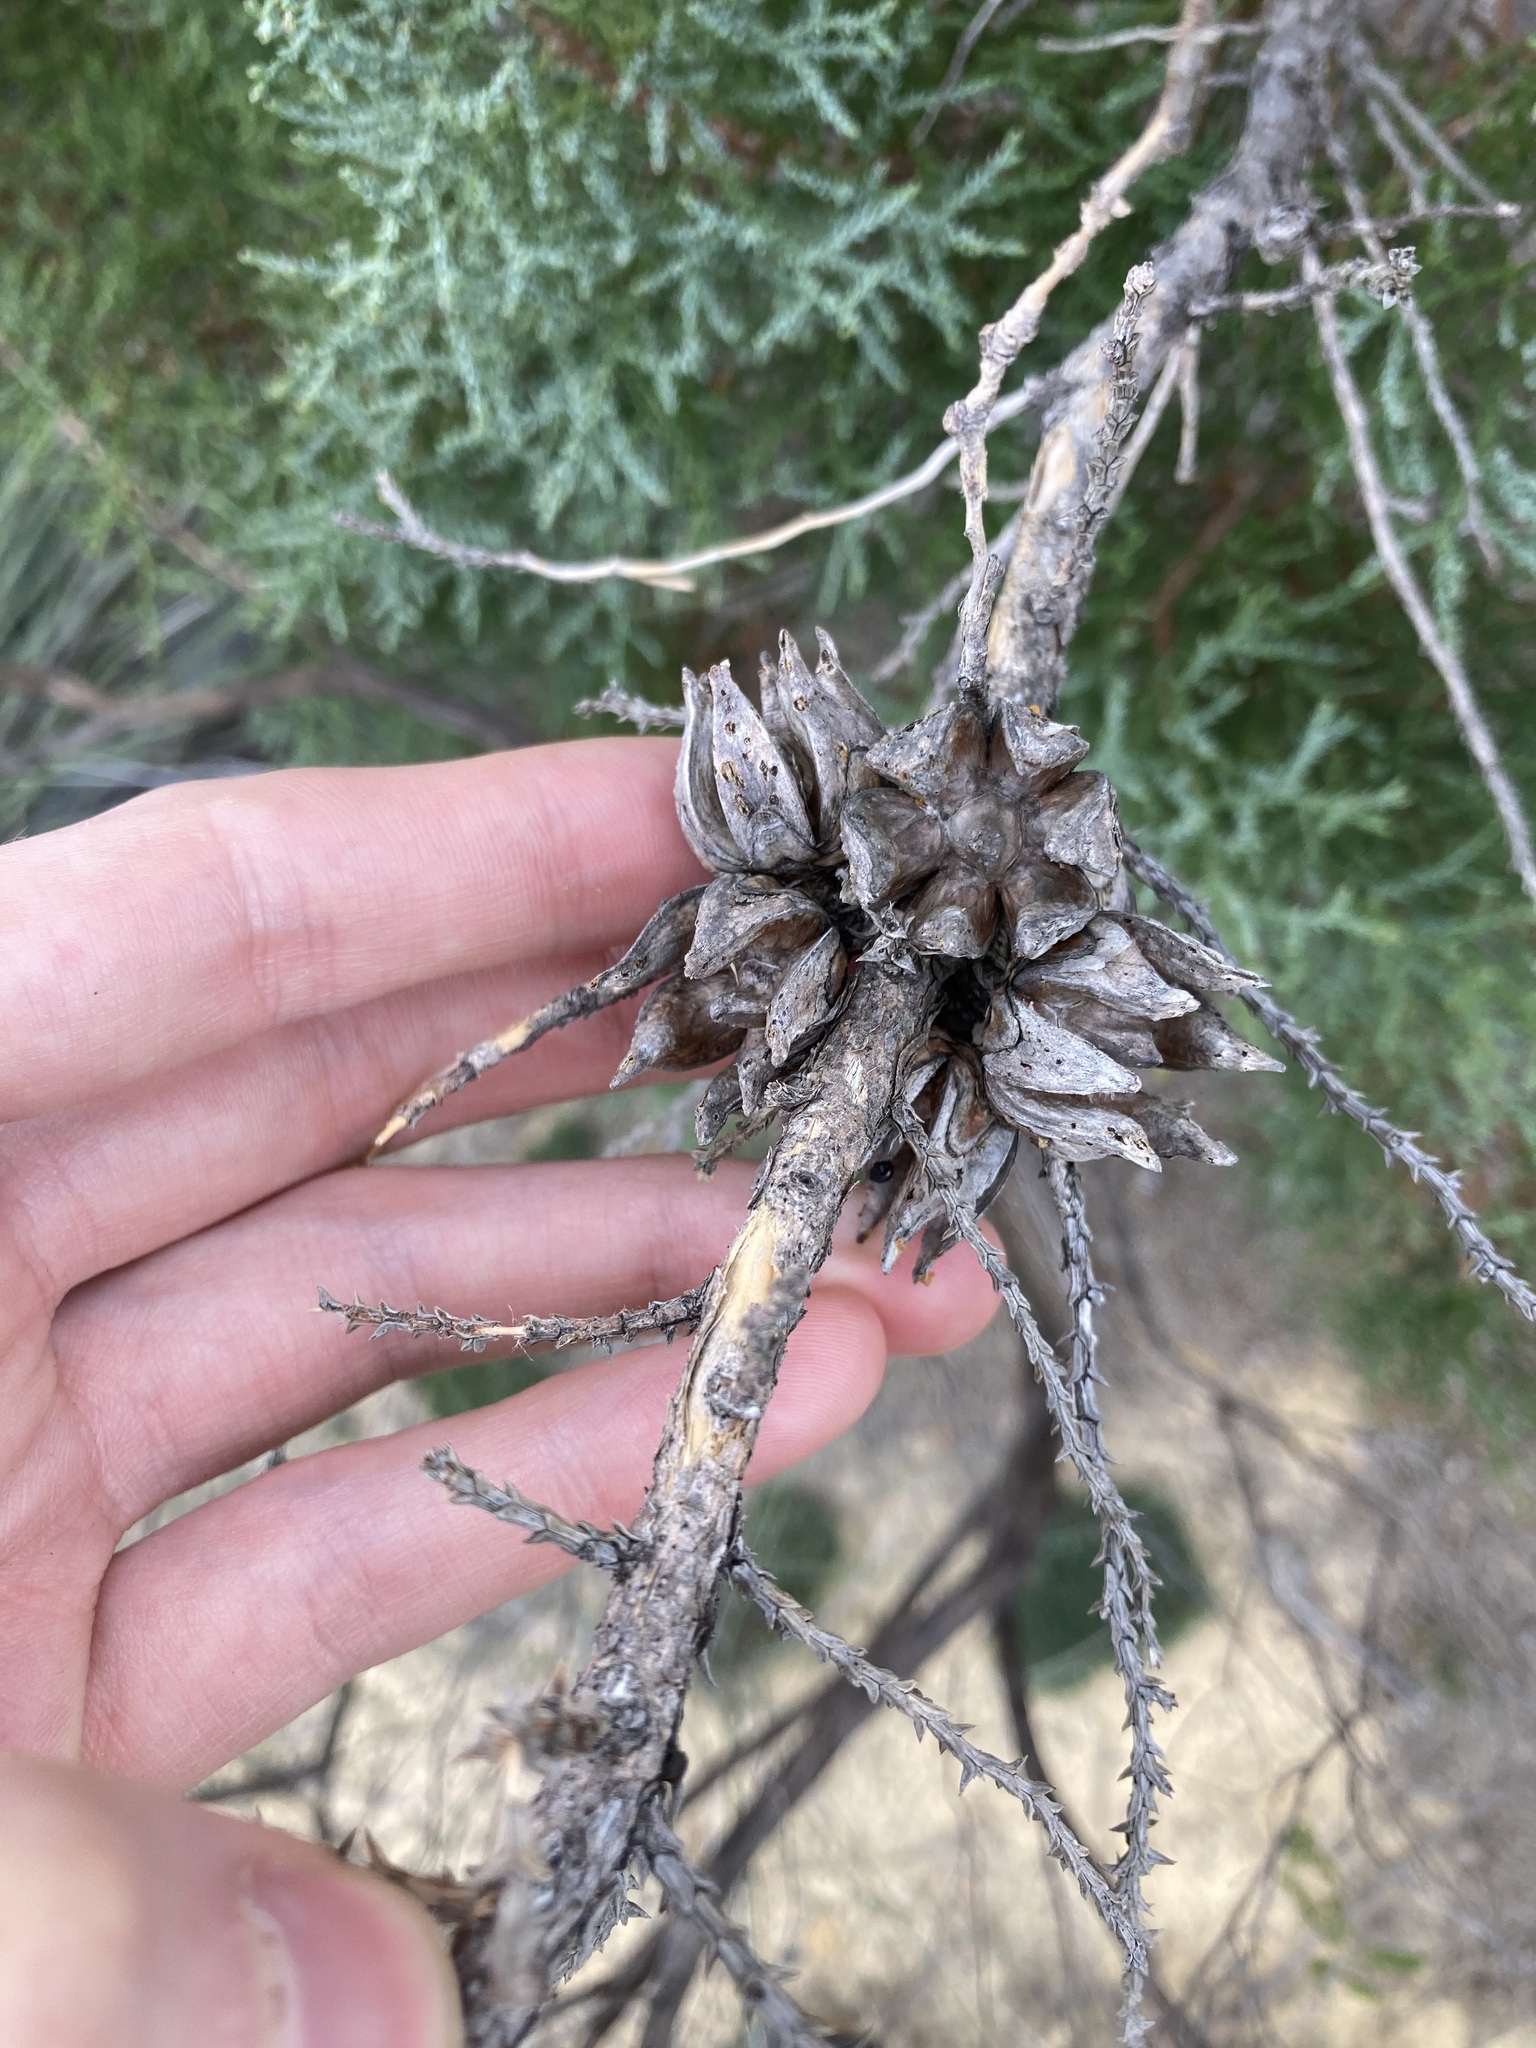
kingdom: Plantae
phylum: Tracheophyta
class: Pinopsida
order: Pinales
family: Cupressaceae
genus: Actinostrobus
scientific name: Actinostrobus arenarius
